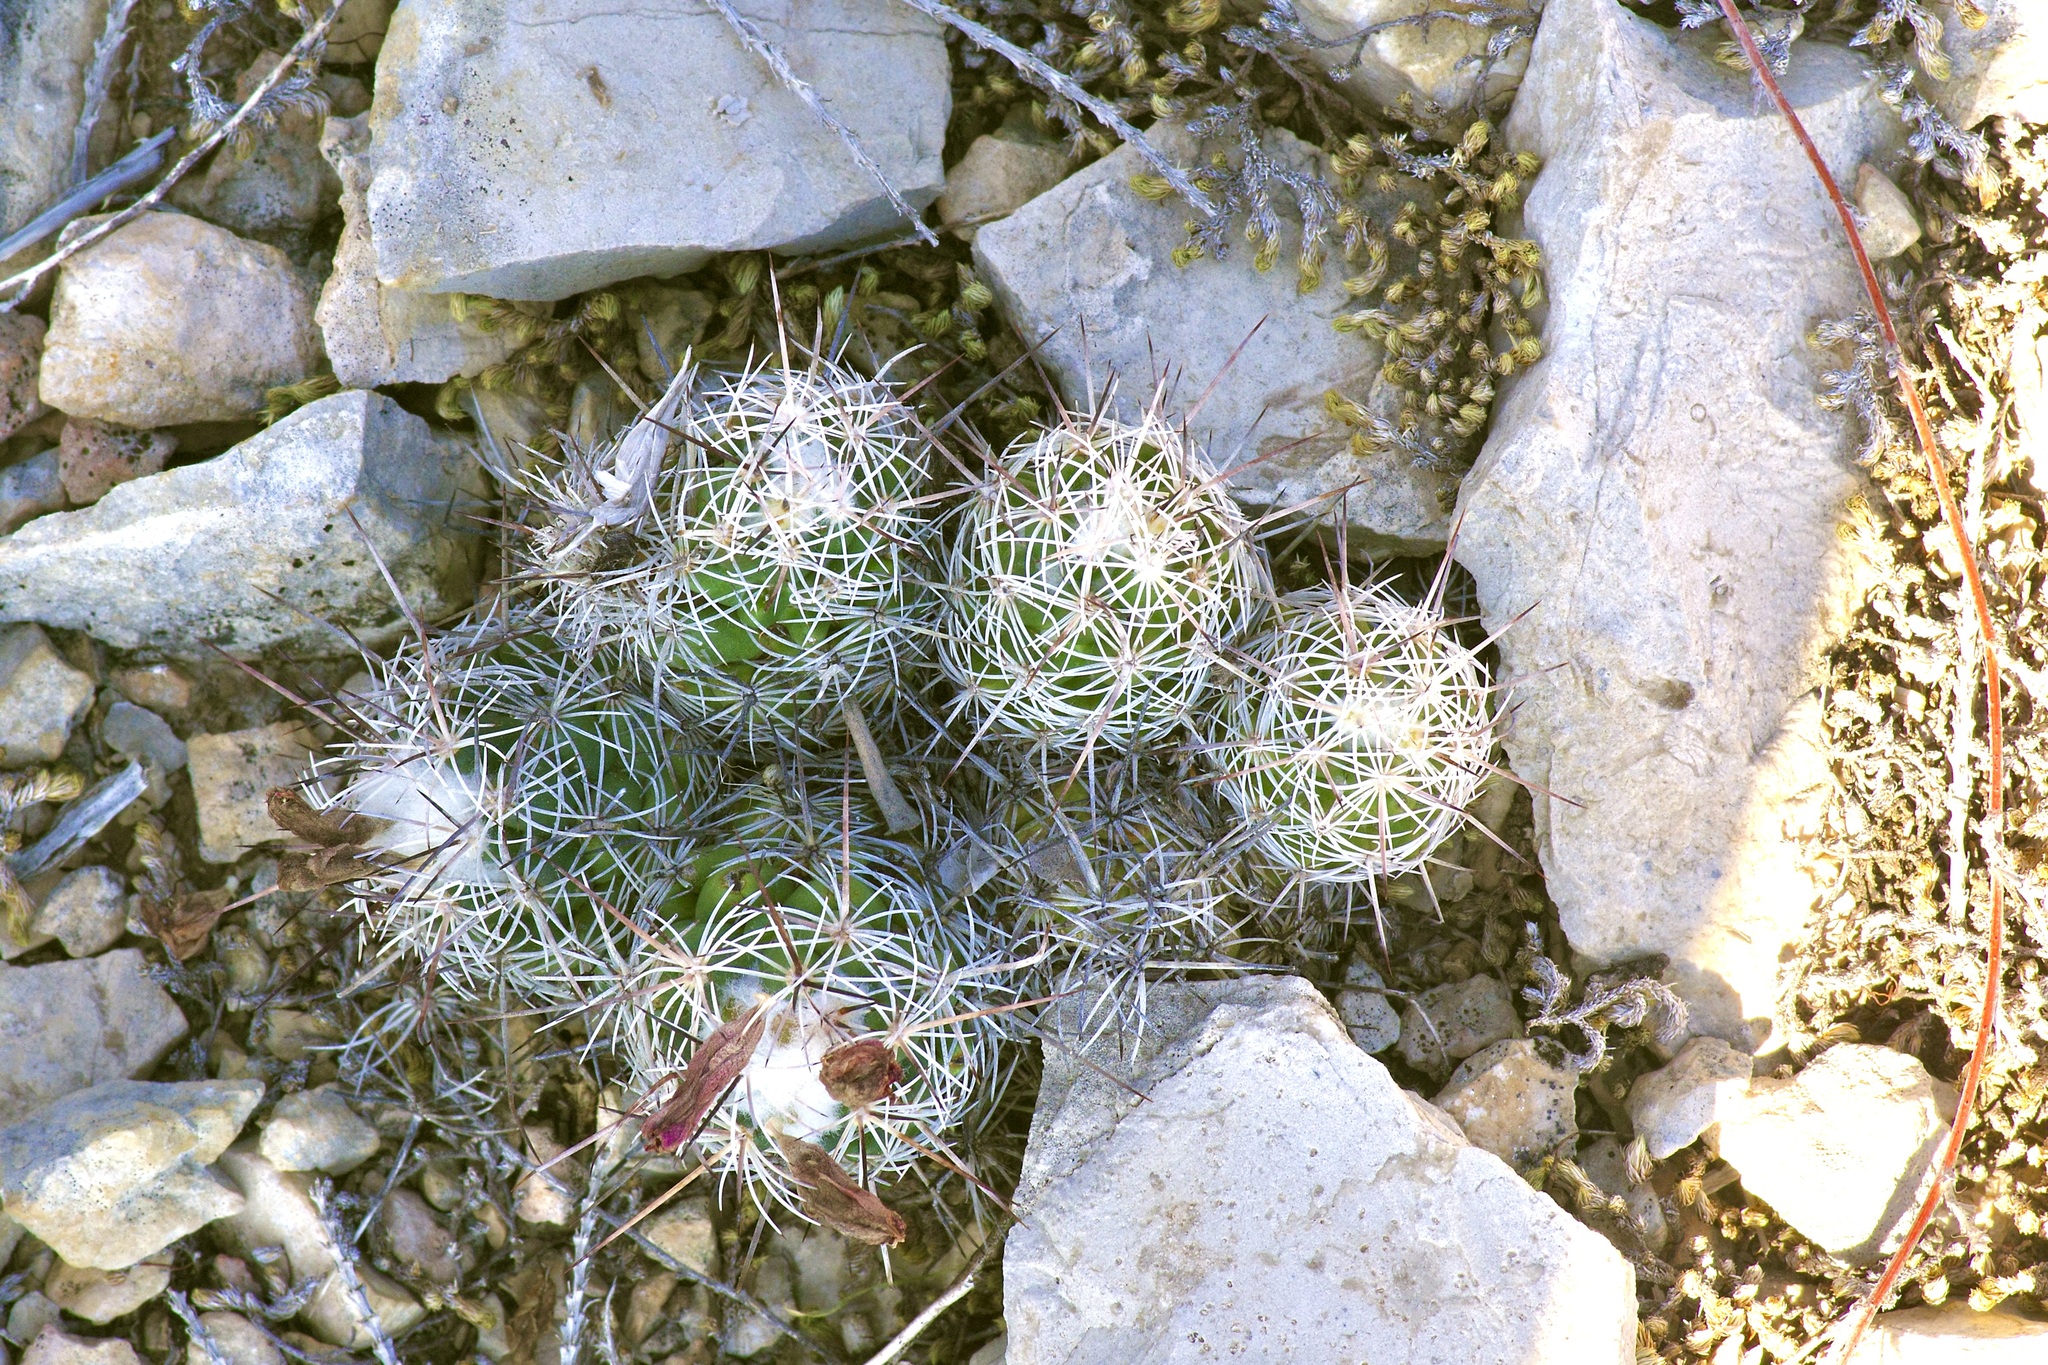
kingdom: Plantae
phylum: Tracheophyta
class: Magnoliopsida
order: Caryophyllales
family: Cactaceae
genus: Cochemiea
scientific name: Cochemiea conoidea
